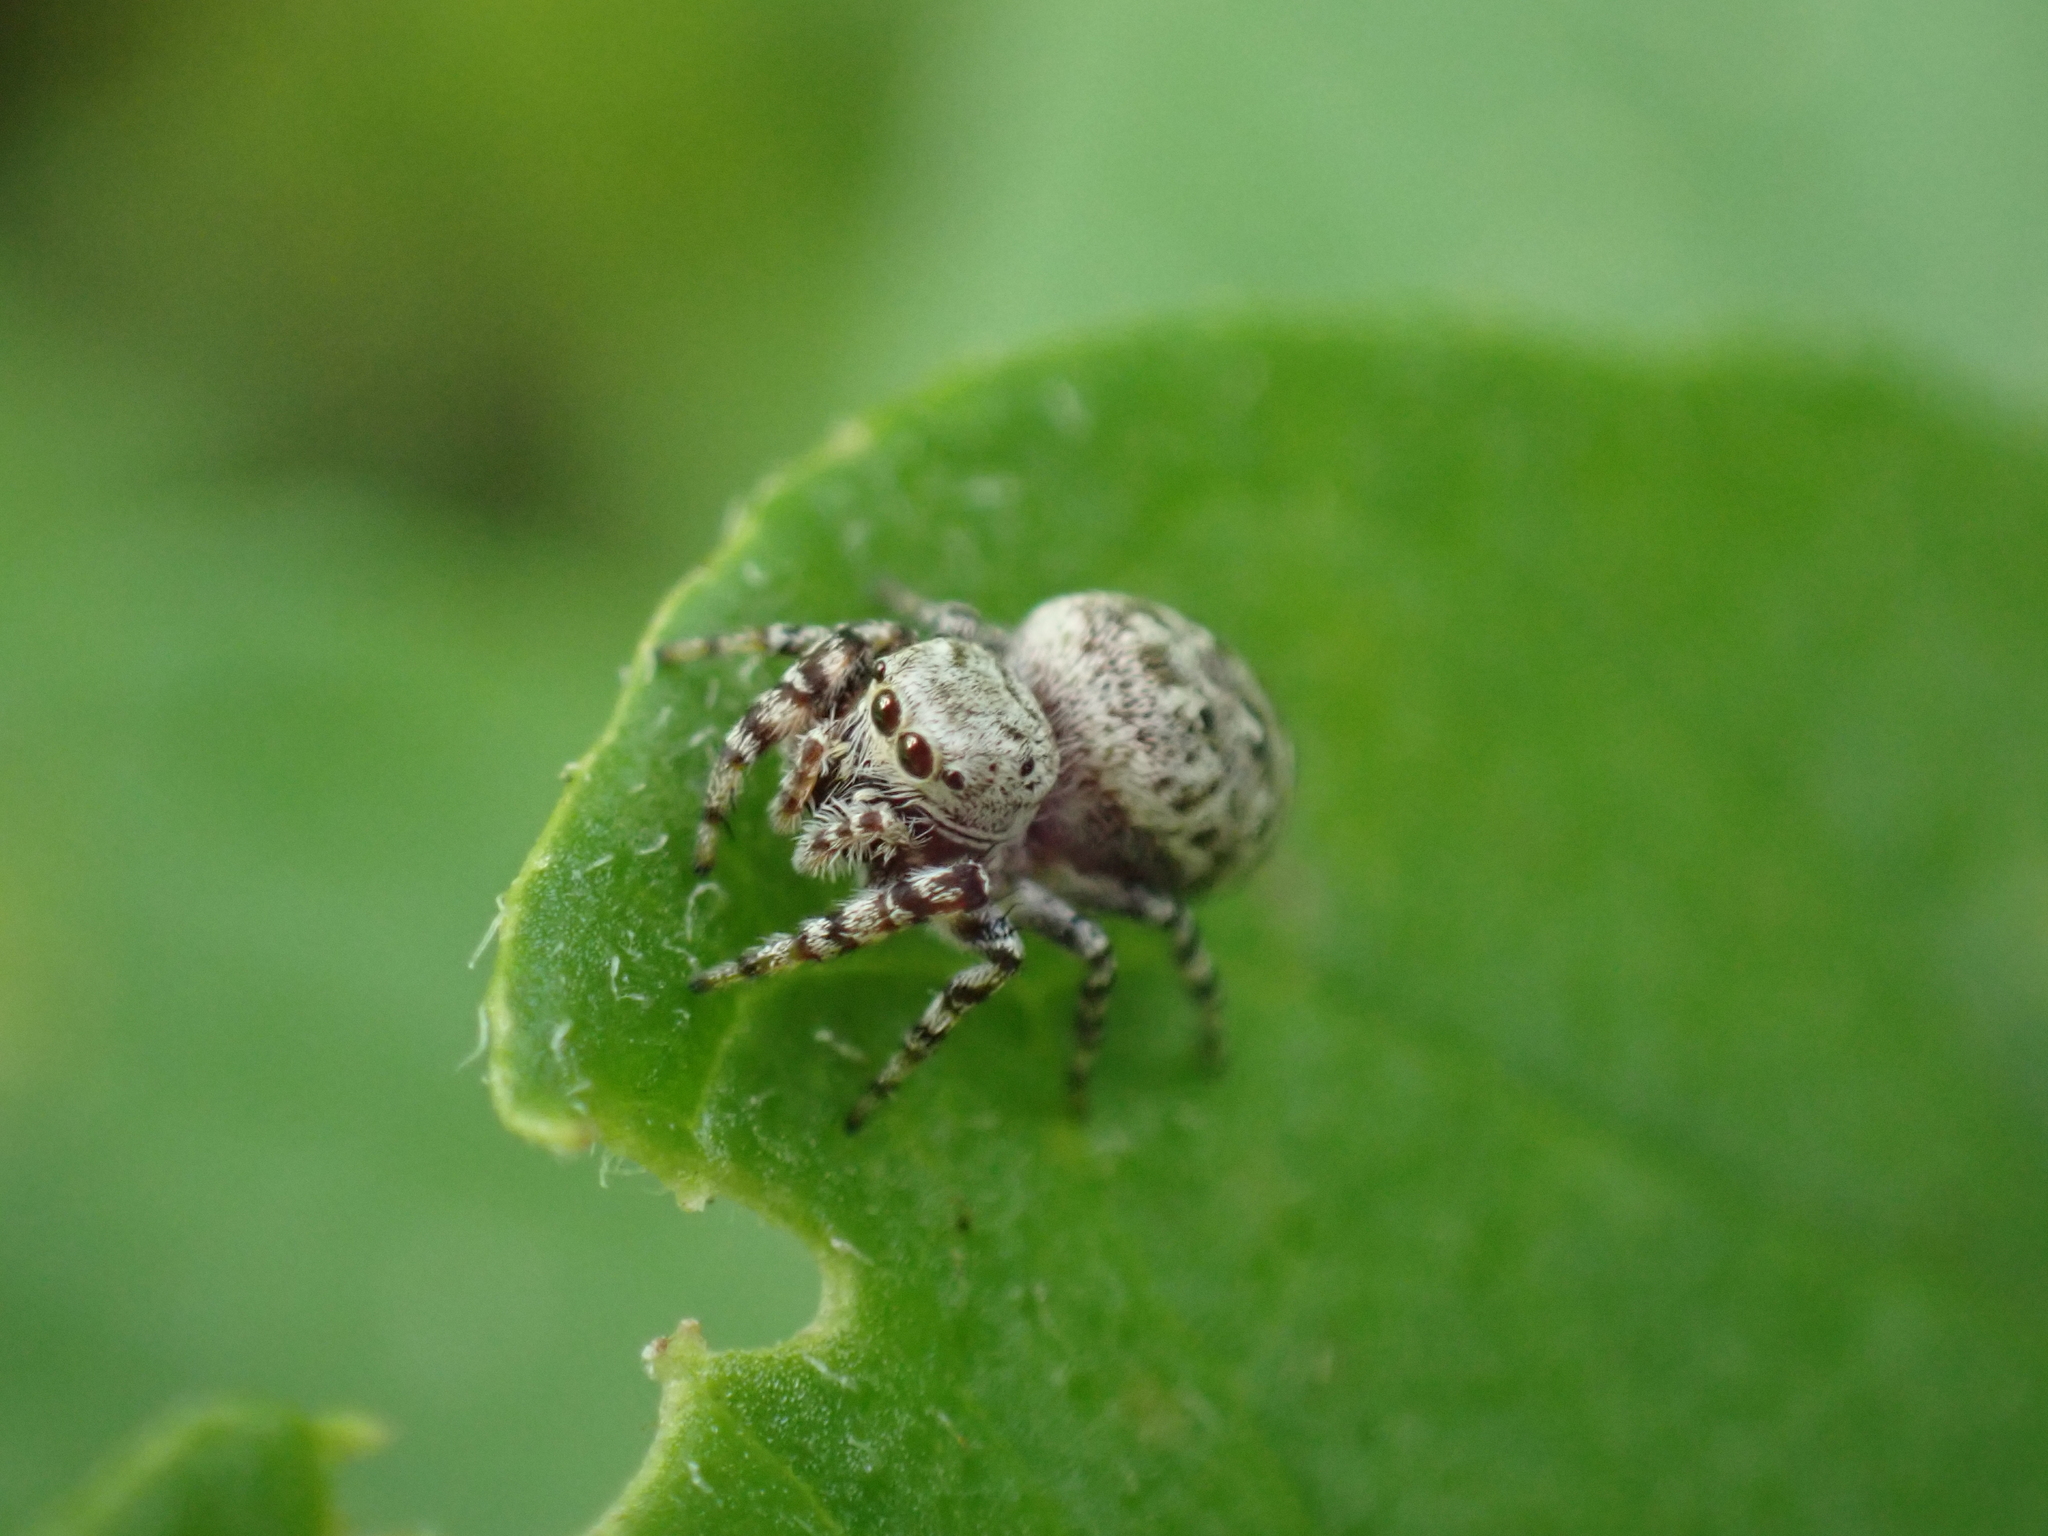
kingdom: Animalia
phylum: Arthropoda
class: Arachnida
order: Araneae
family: Salticidae
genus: Pelegrina
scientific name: Pelegrina galathea
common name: Jumping spiders
